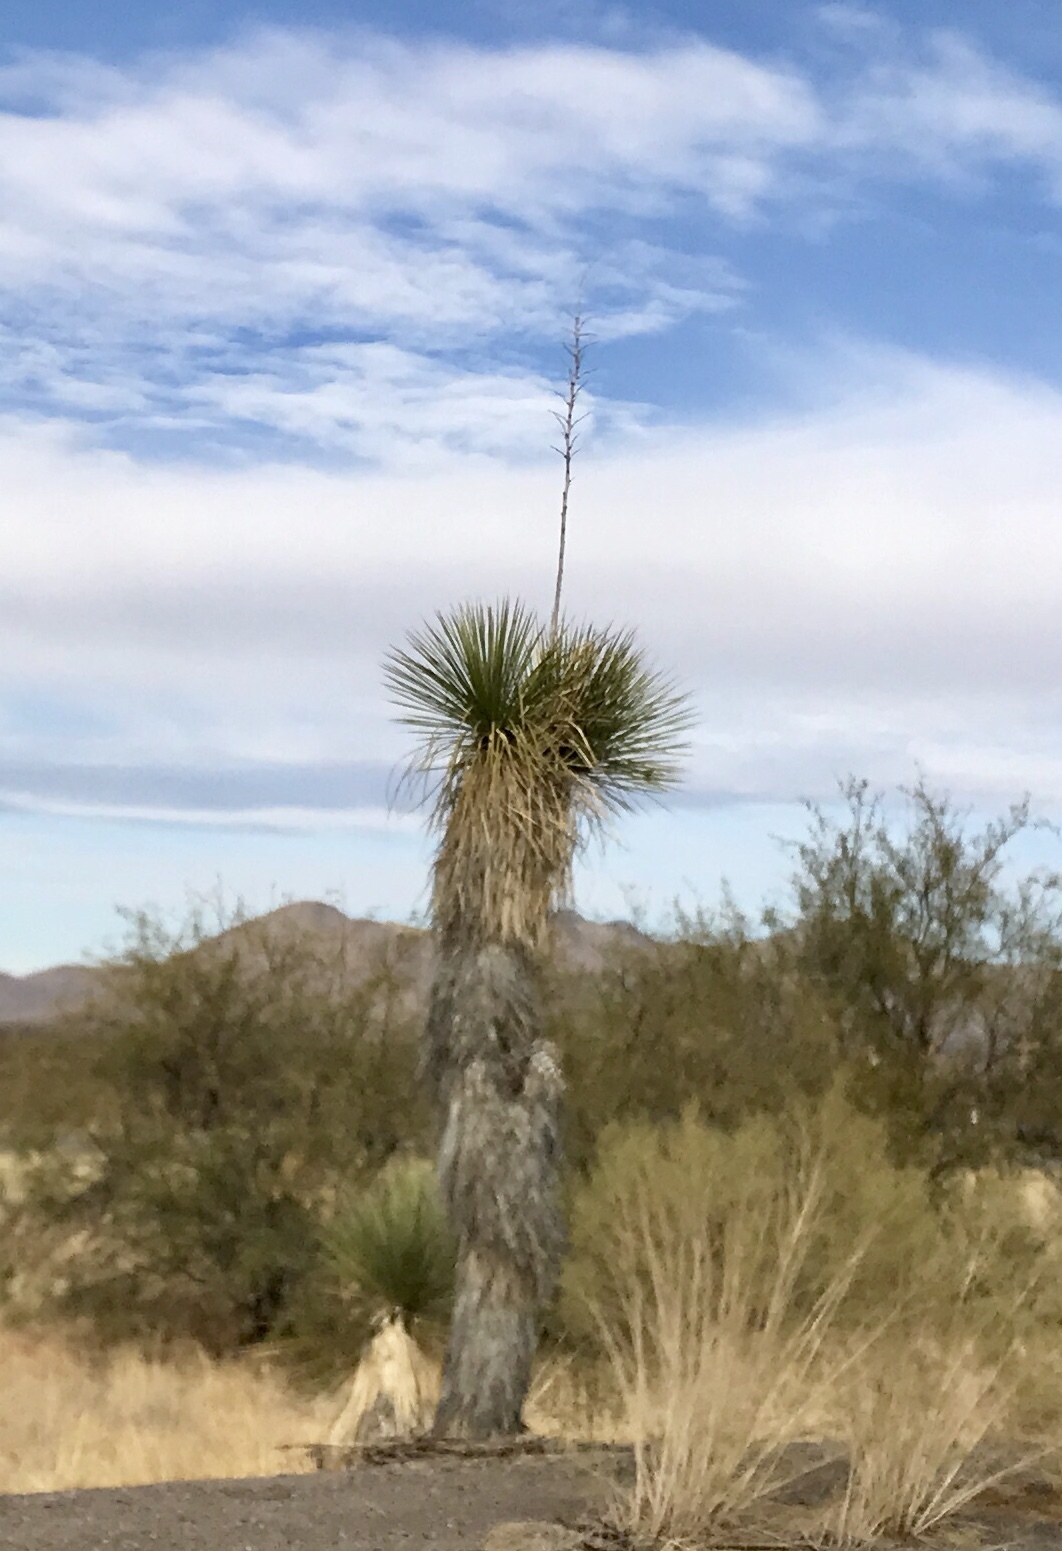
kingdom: Plantae
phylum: Tracheophyta
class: Liliopsida
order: Asparagales
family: Asparagaceae
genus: Yucca
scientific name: Yucca elata
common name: Palmella
